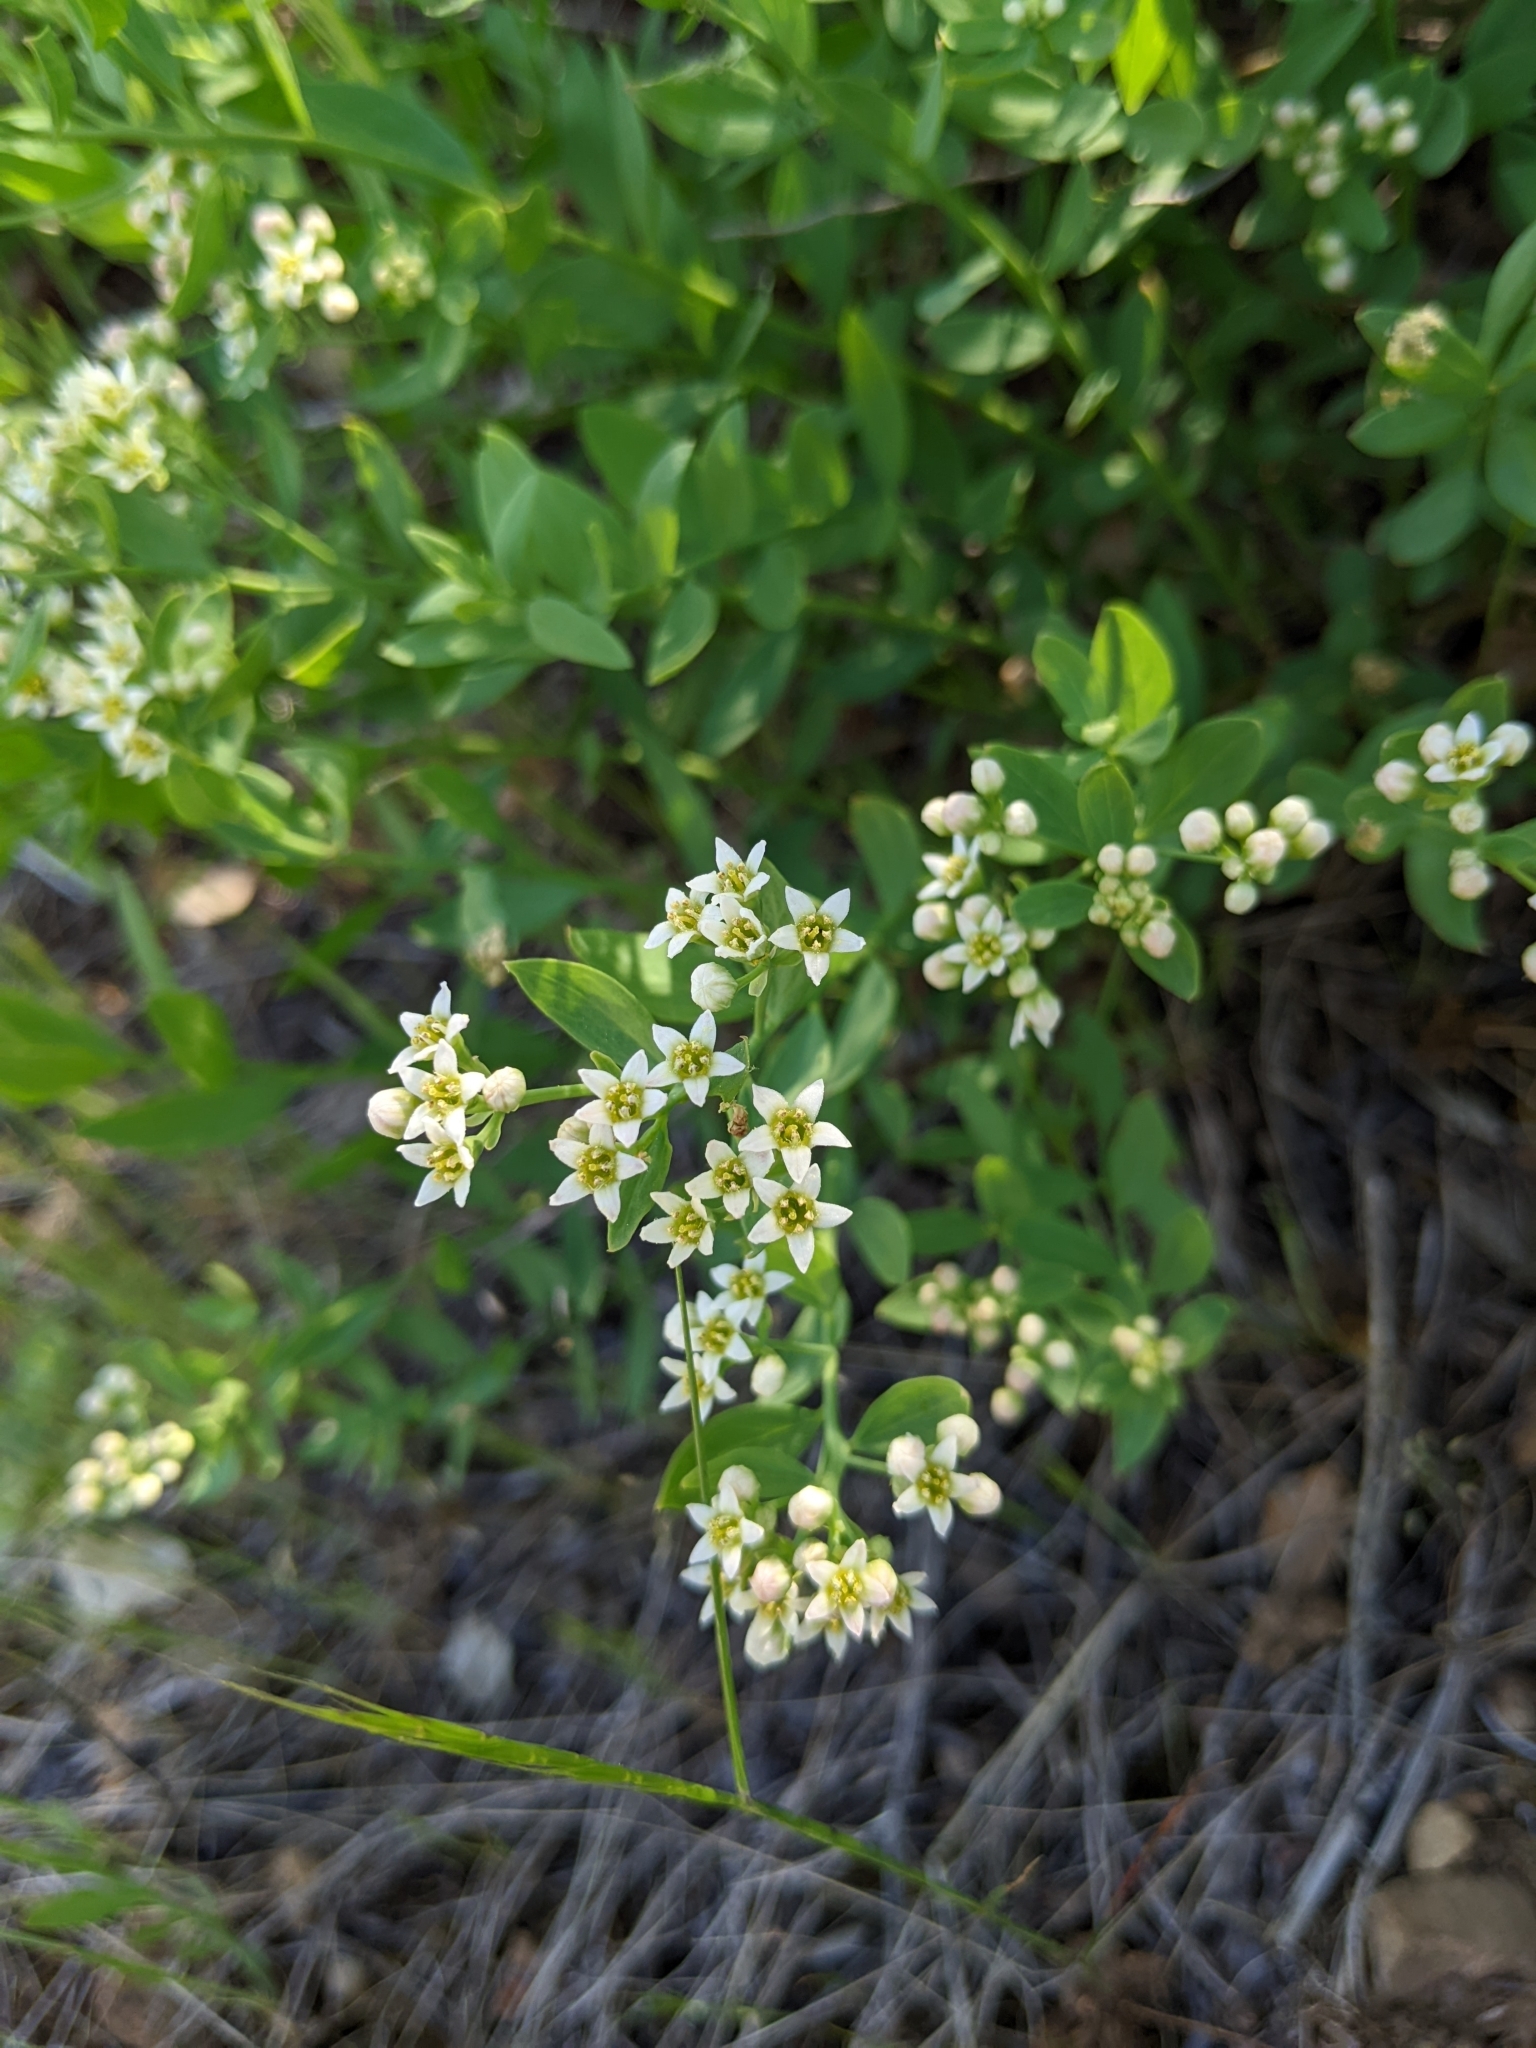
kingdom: Plantae
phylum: Tracheophyta
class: Magnoliopsida
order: Santalales
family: Comandraceae
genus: Comandra
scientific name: Comandra umbellata
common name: Bastard toadflax
